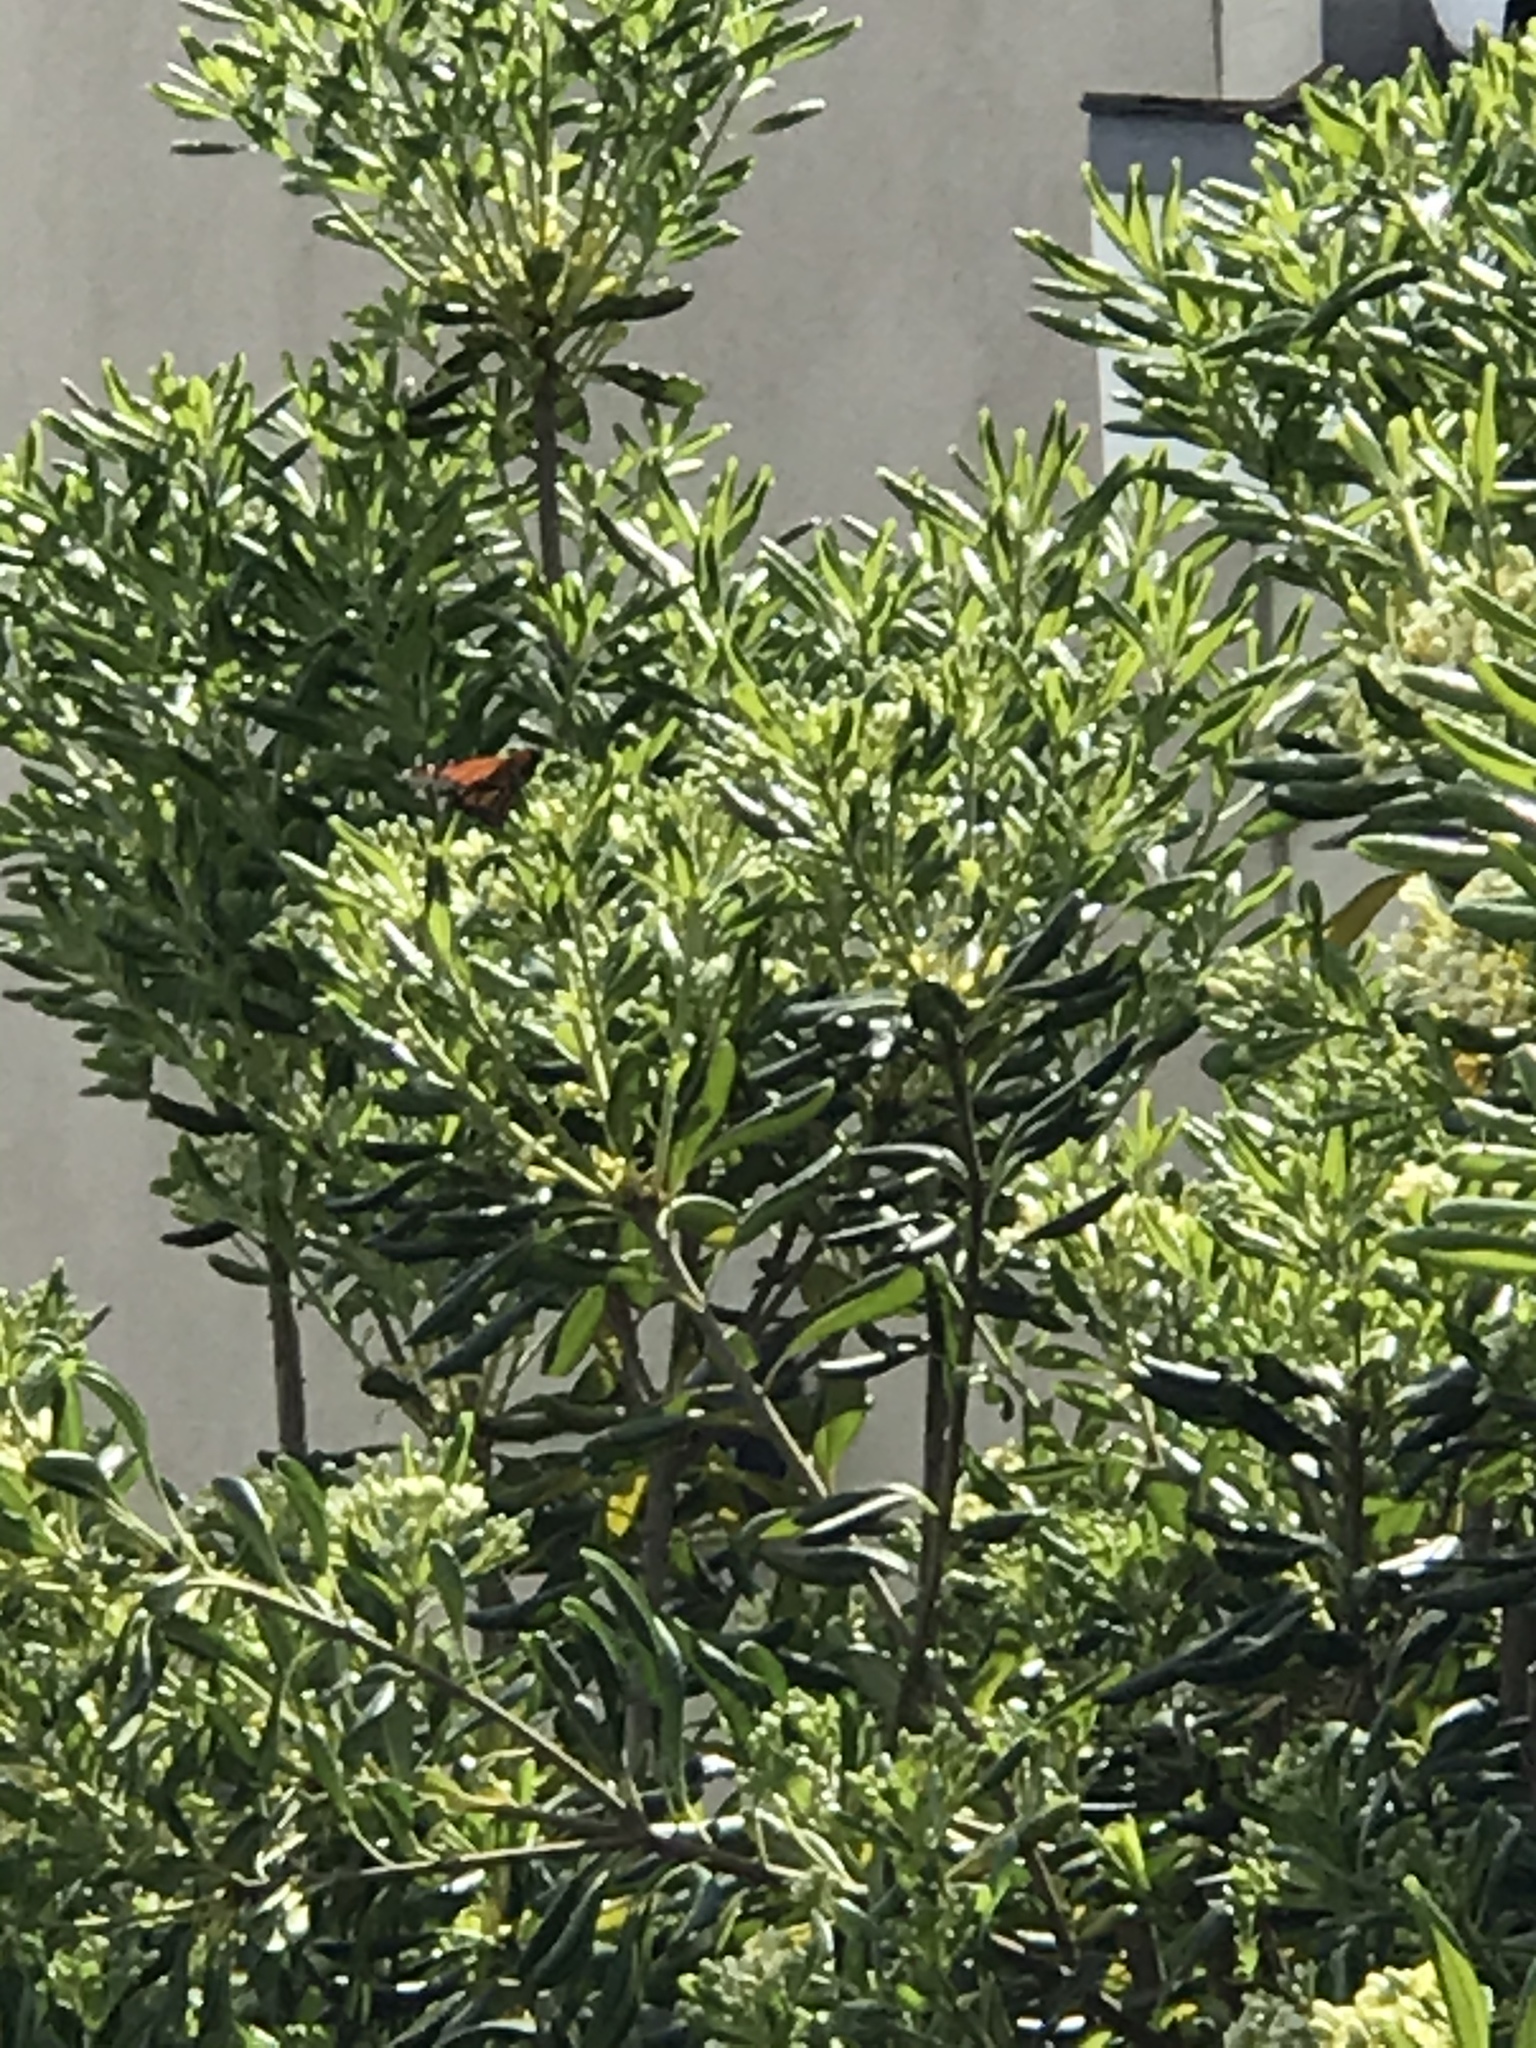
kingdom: Animalia
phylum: Arthropoda
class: Insecta
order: Lepidoptera
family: Nymphalidae
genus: Danaus
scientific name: Danaus plexippus
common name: Monarch
